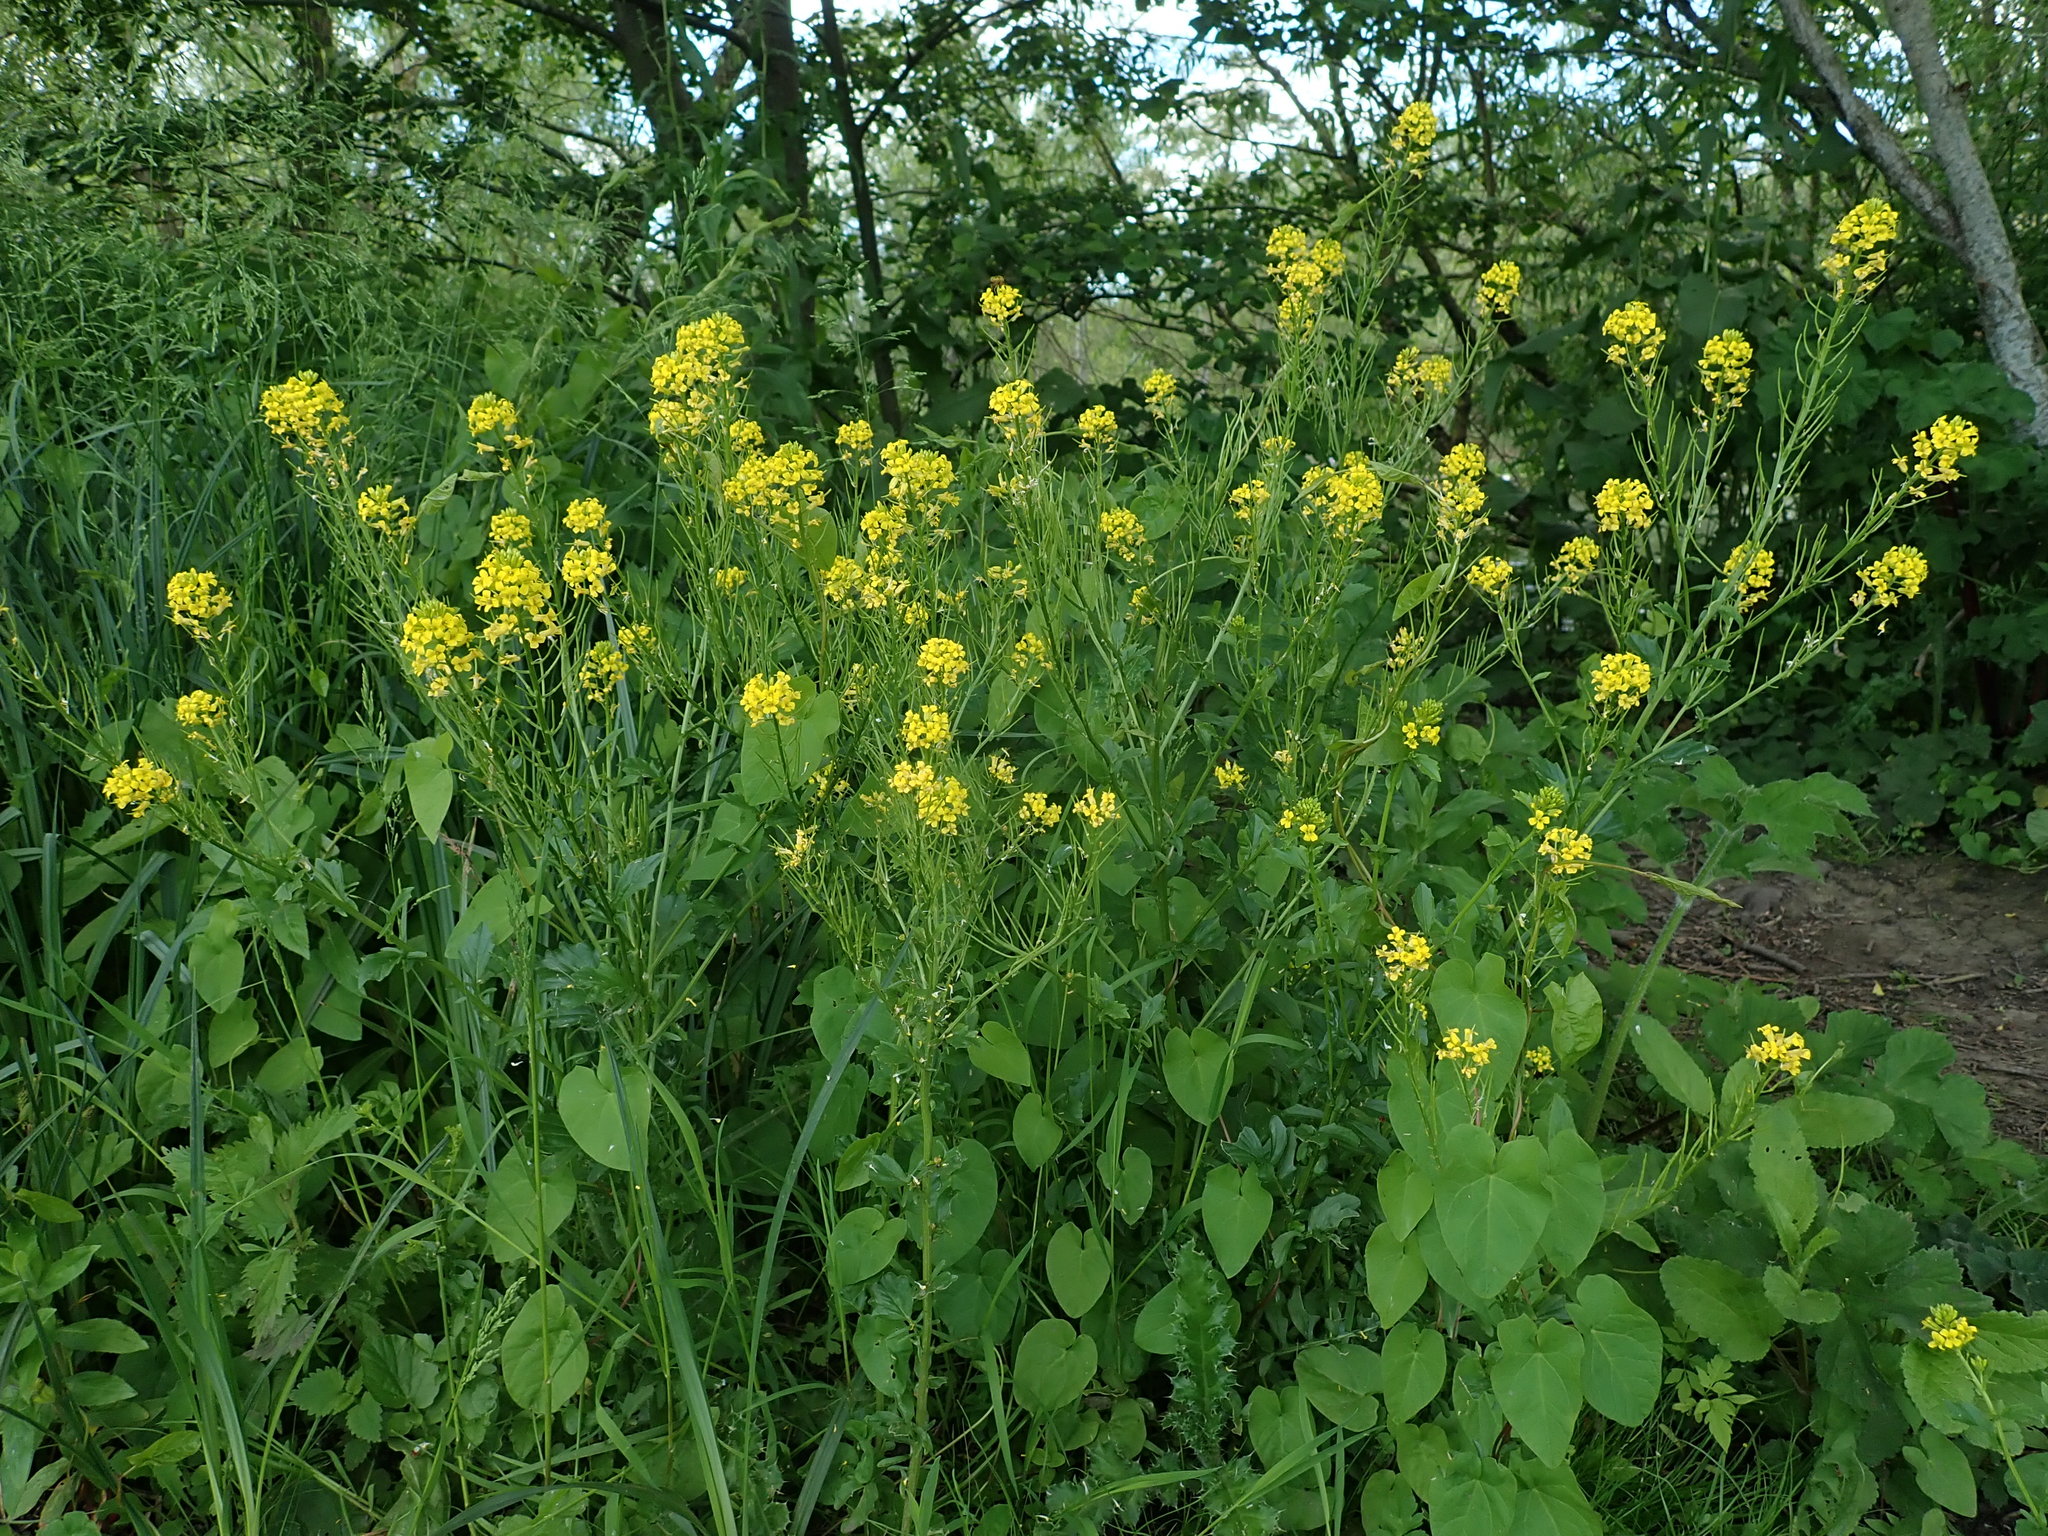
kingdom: Plantae
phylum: Tracheophyta
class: Magnoliopsida
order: Brassicales
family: Brassicaceae
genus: Barbarea
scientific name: Barbarea vulgaris
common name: Cressy-greens
